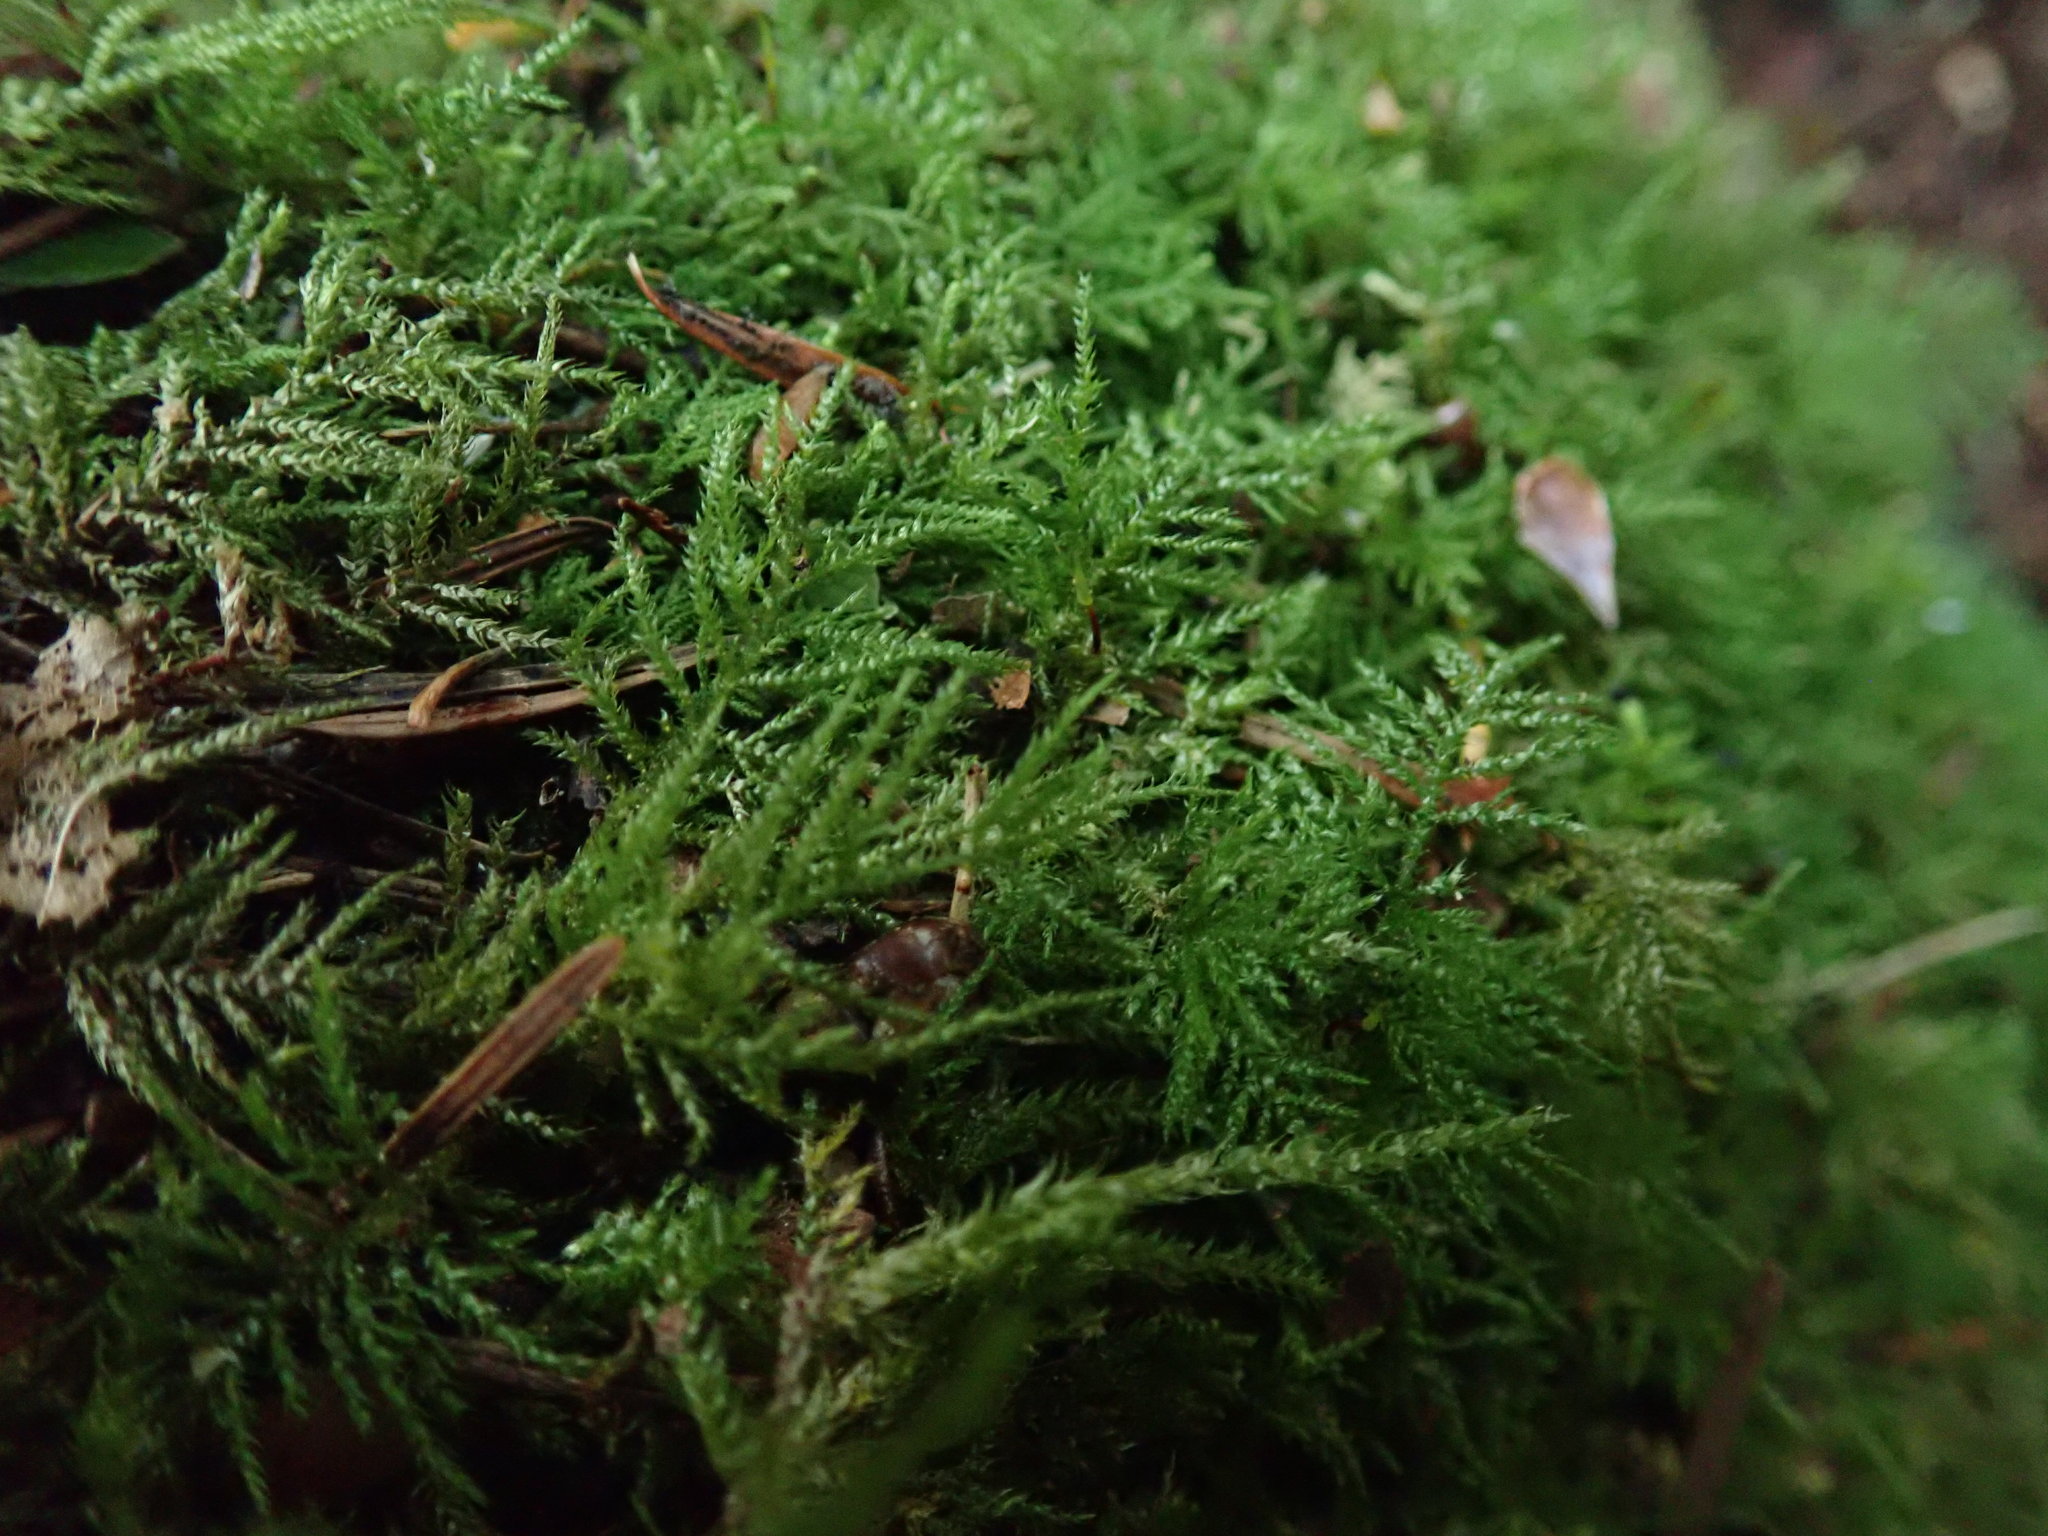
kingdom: Plantae
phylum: Bryophyta
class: Bryopsida
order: Hypnales
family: Brachytheciaceae
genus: Kindbergia
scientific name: Kindbergia praelonga
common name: Slender beaked moss
